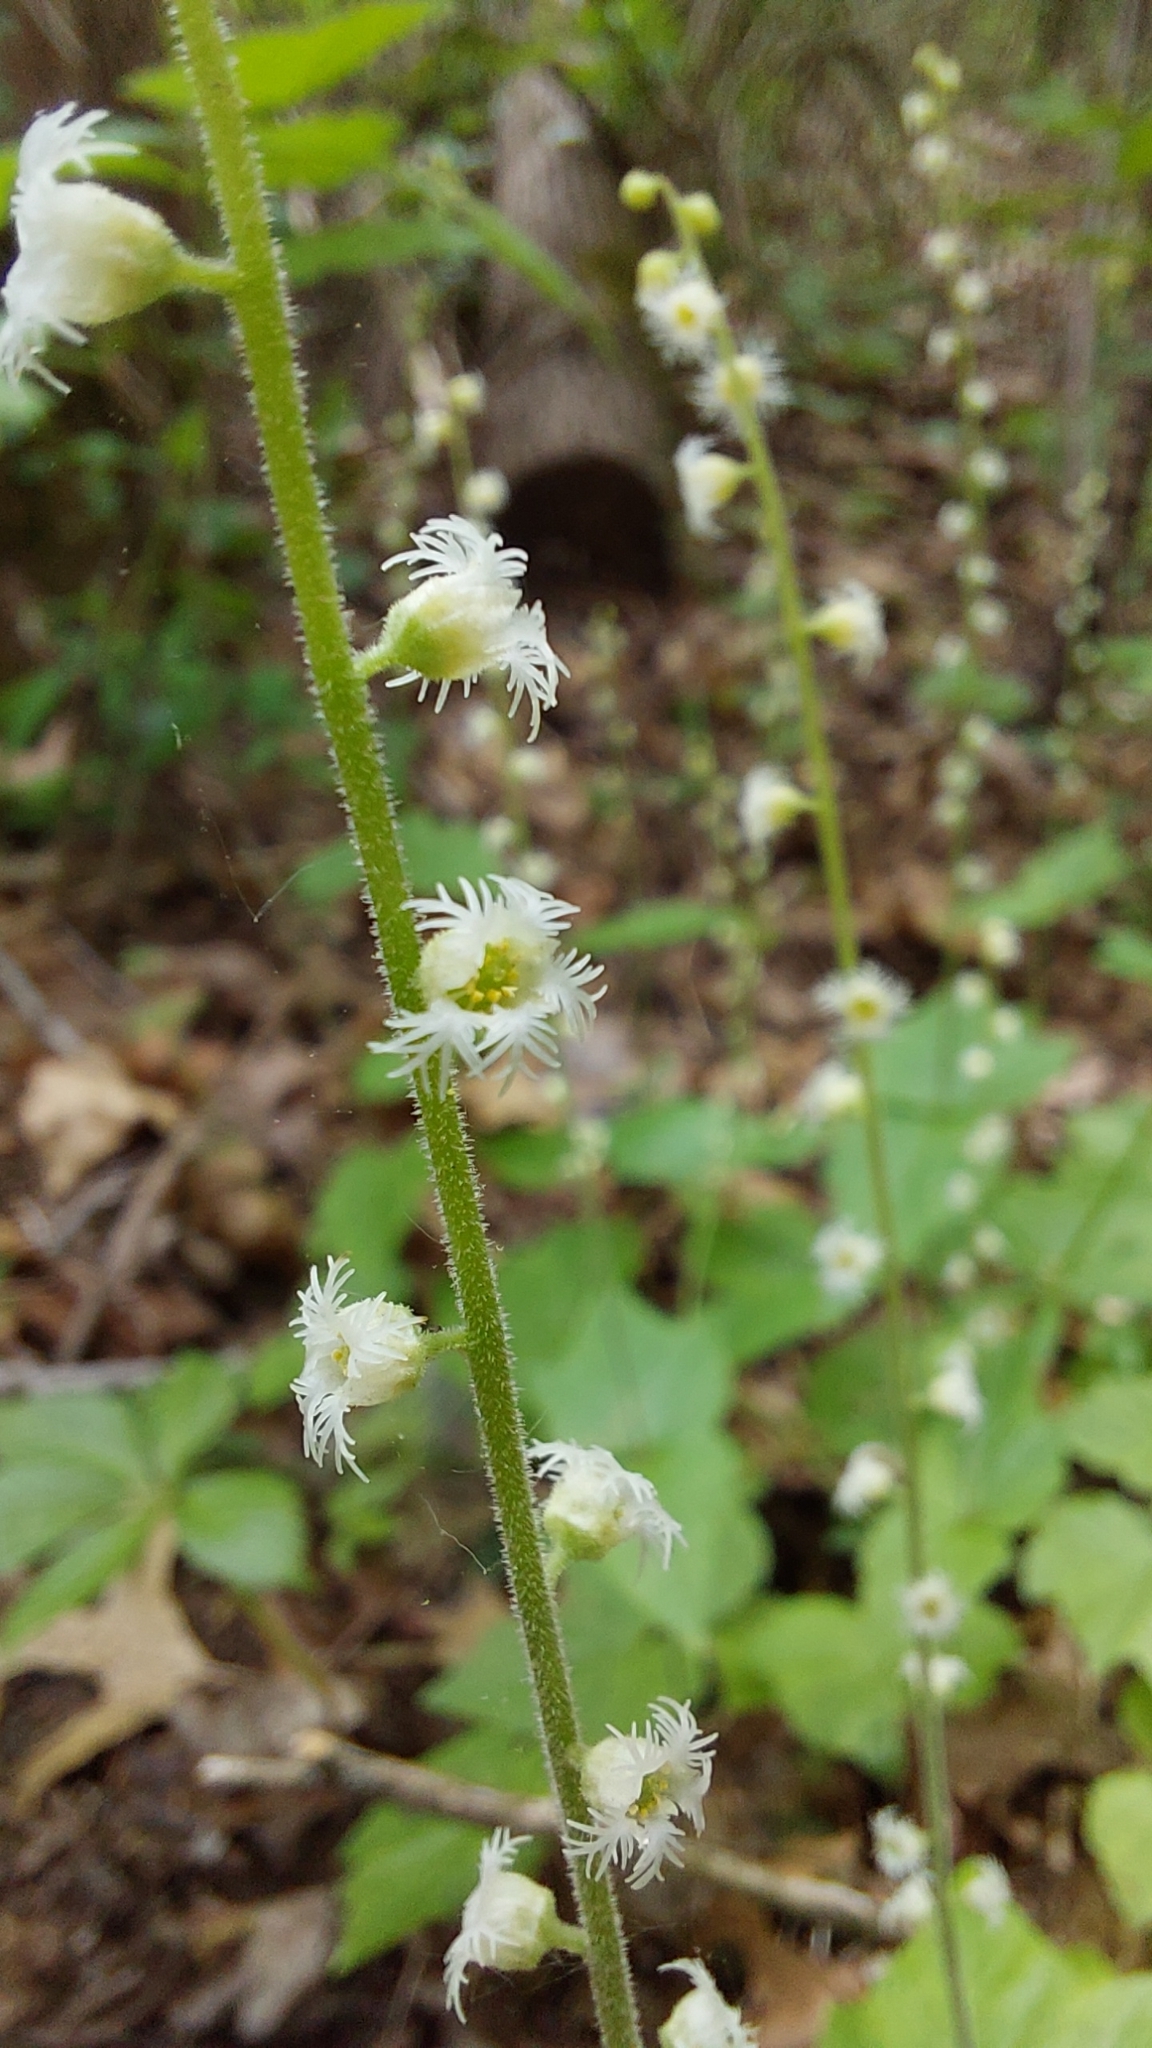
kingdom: Plantae
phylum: Tracheophyta
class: Magnoliopsida
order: Saxifragales
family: Saxifragaceae
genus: Mitella
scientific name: Mitella diphylla
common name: Coolwort
